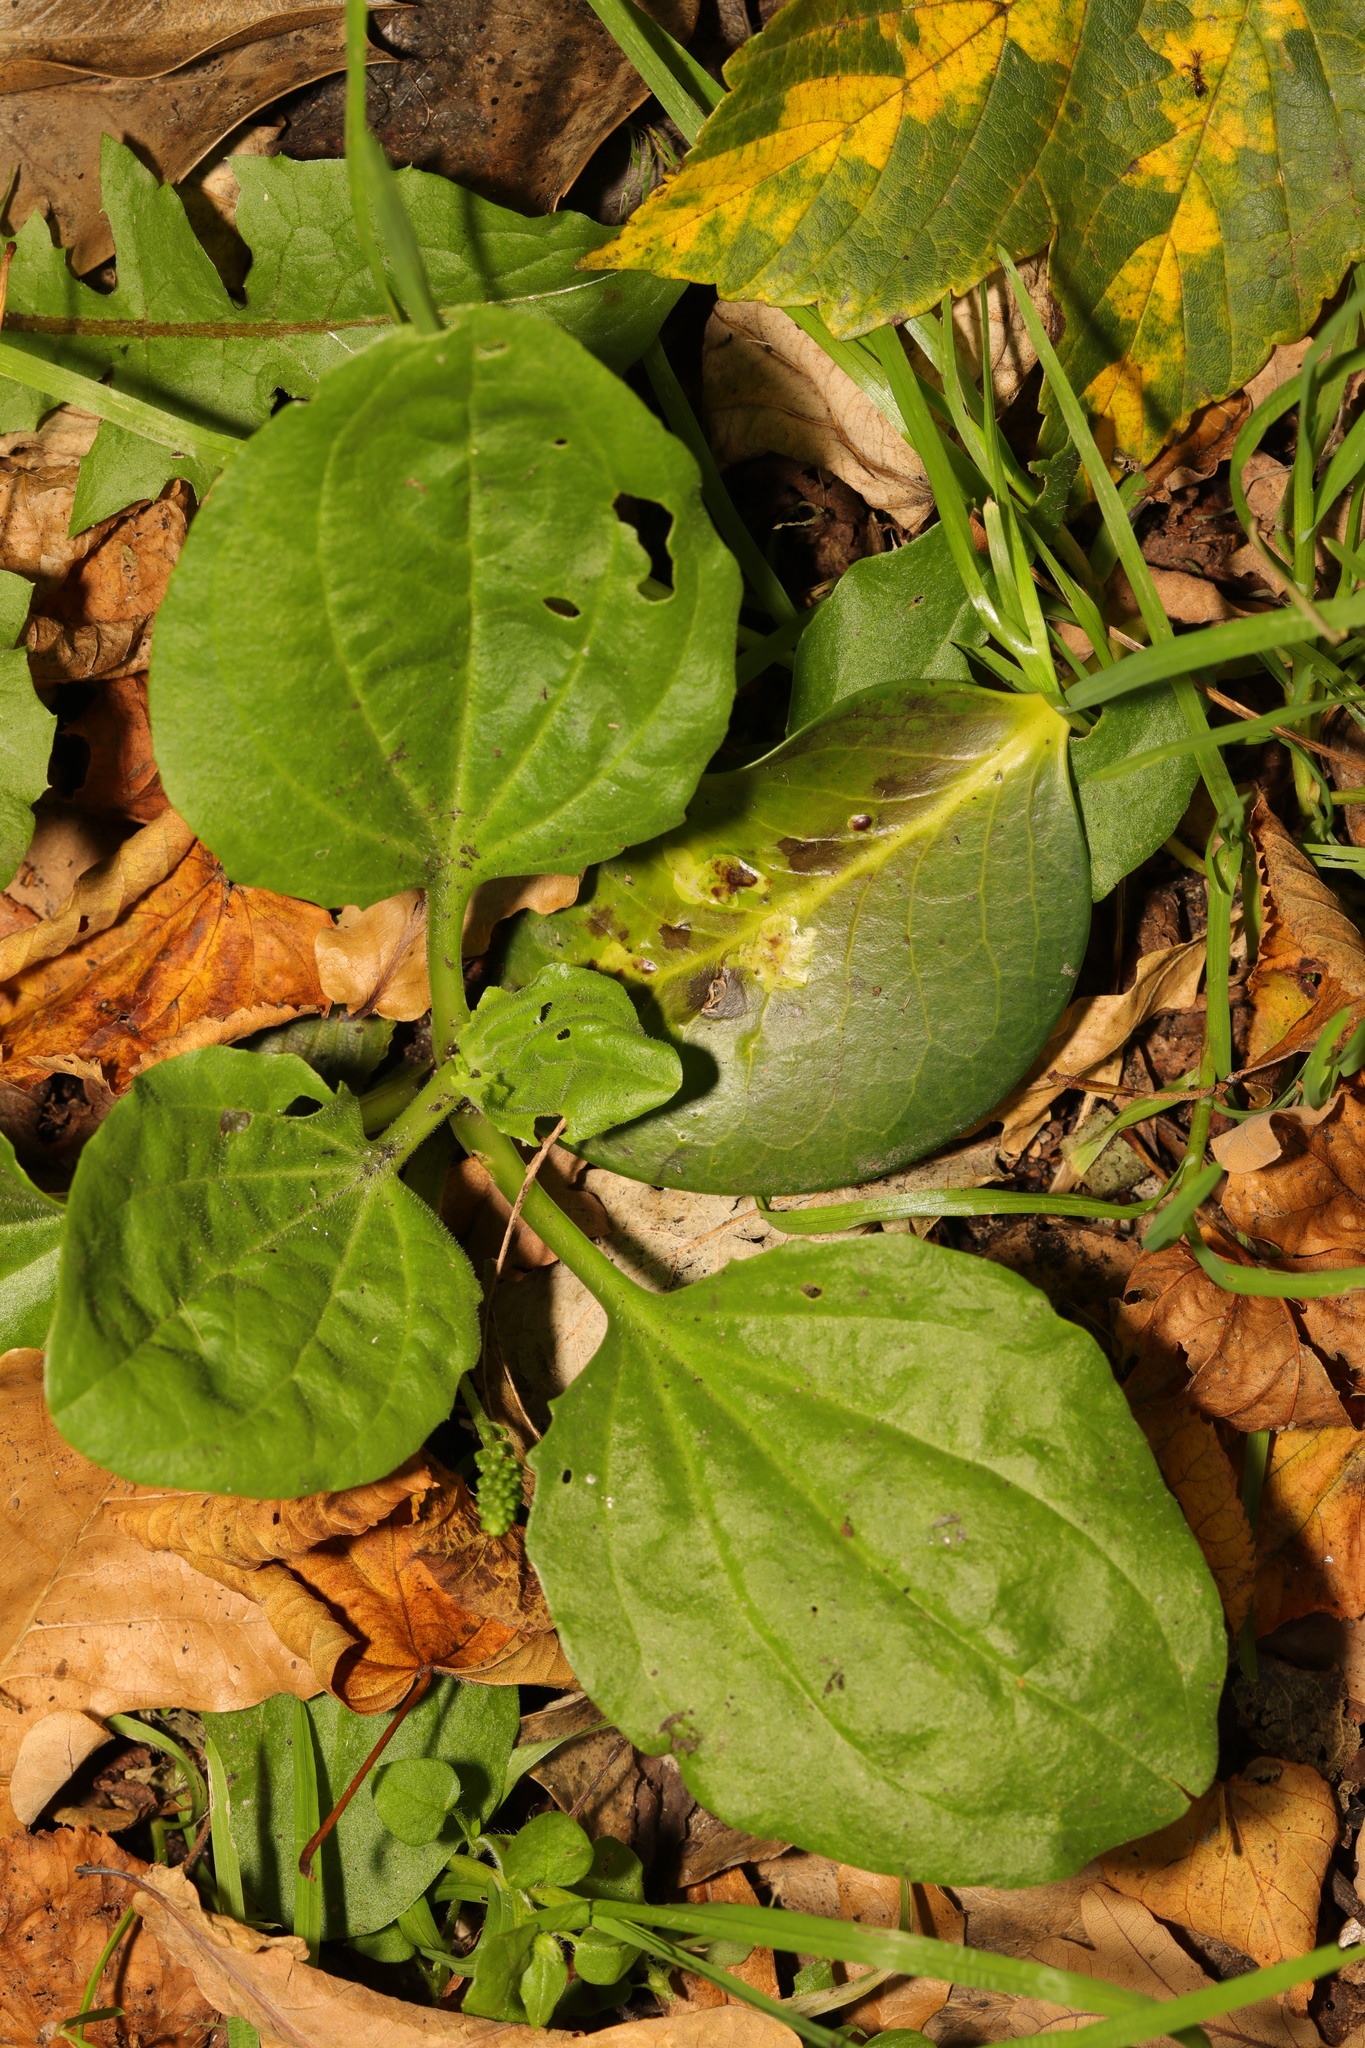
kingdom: Plantae
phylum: Tracheophyta
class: Magnoliopsida
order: Lamiales
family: Plantaginaceae
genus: Plantago
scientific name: Plantago major
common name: Common plantain
